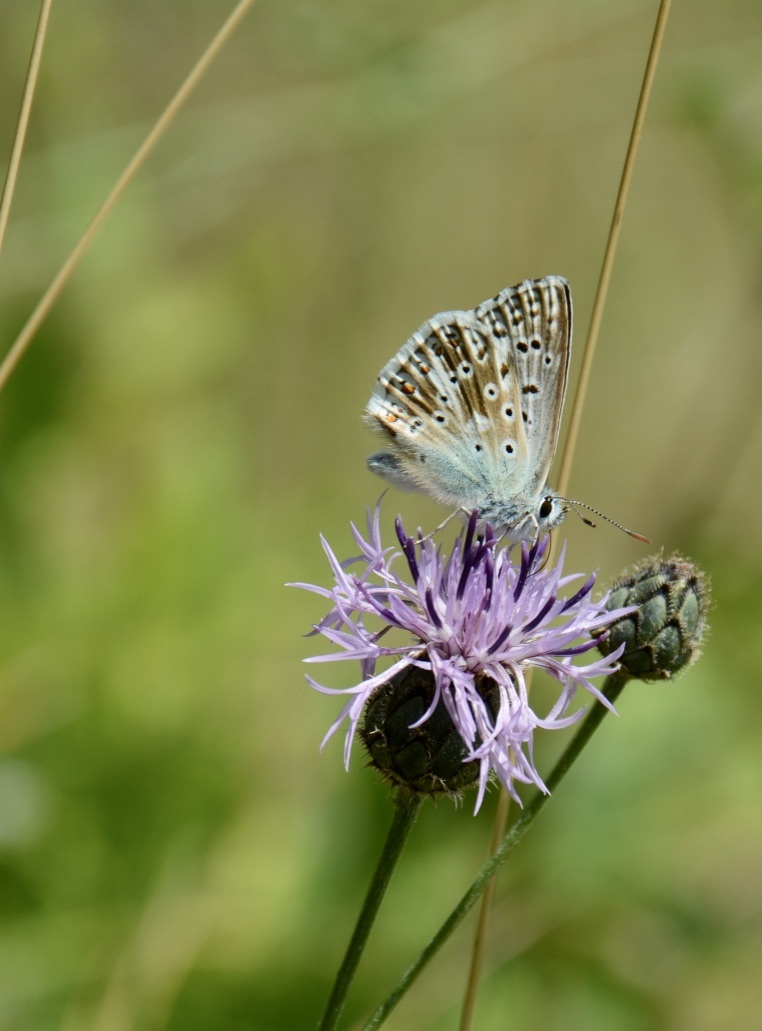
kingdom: Animalia
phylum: Arthropoda
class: Insecta
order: Lepidoptera
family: Lycaenidae
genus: Lysandra
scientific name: Lysandra coridon
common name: Chalkhill blue
